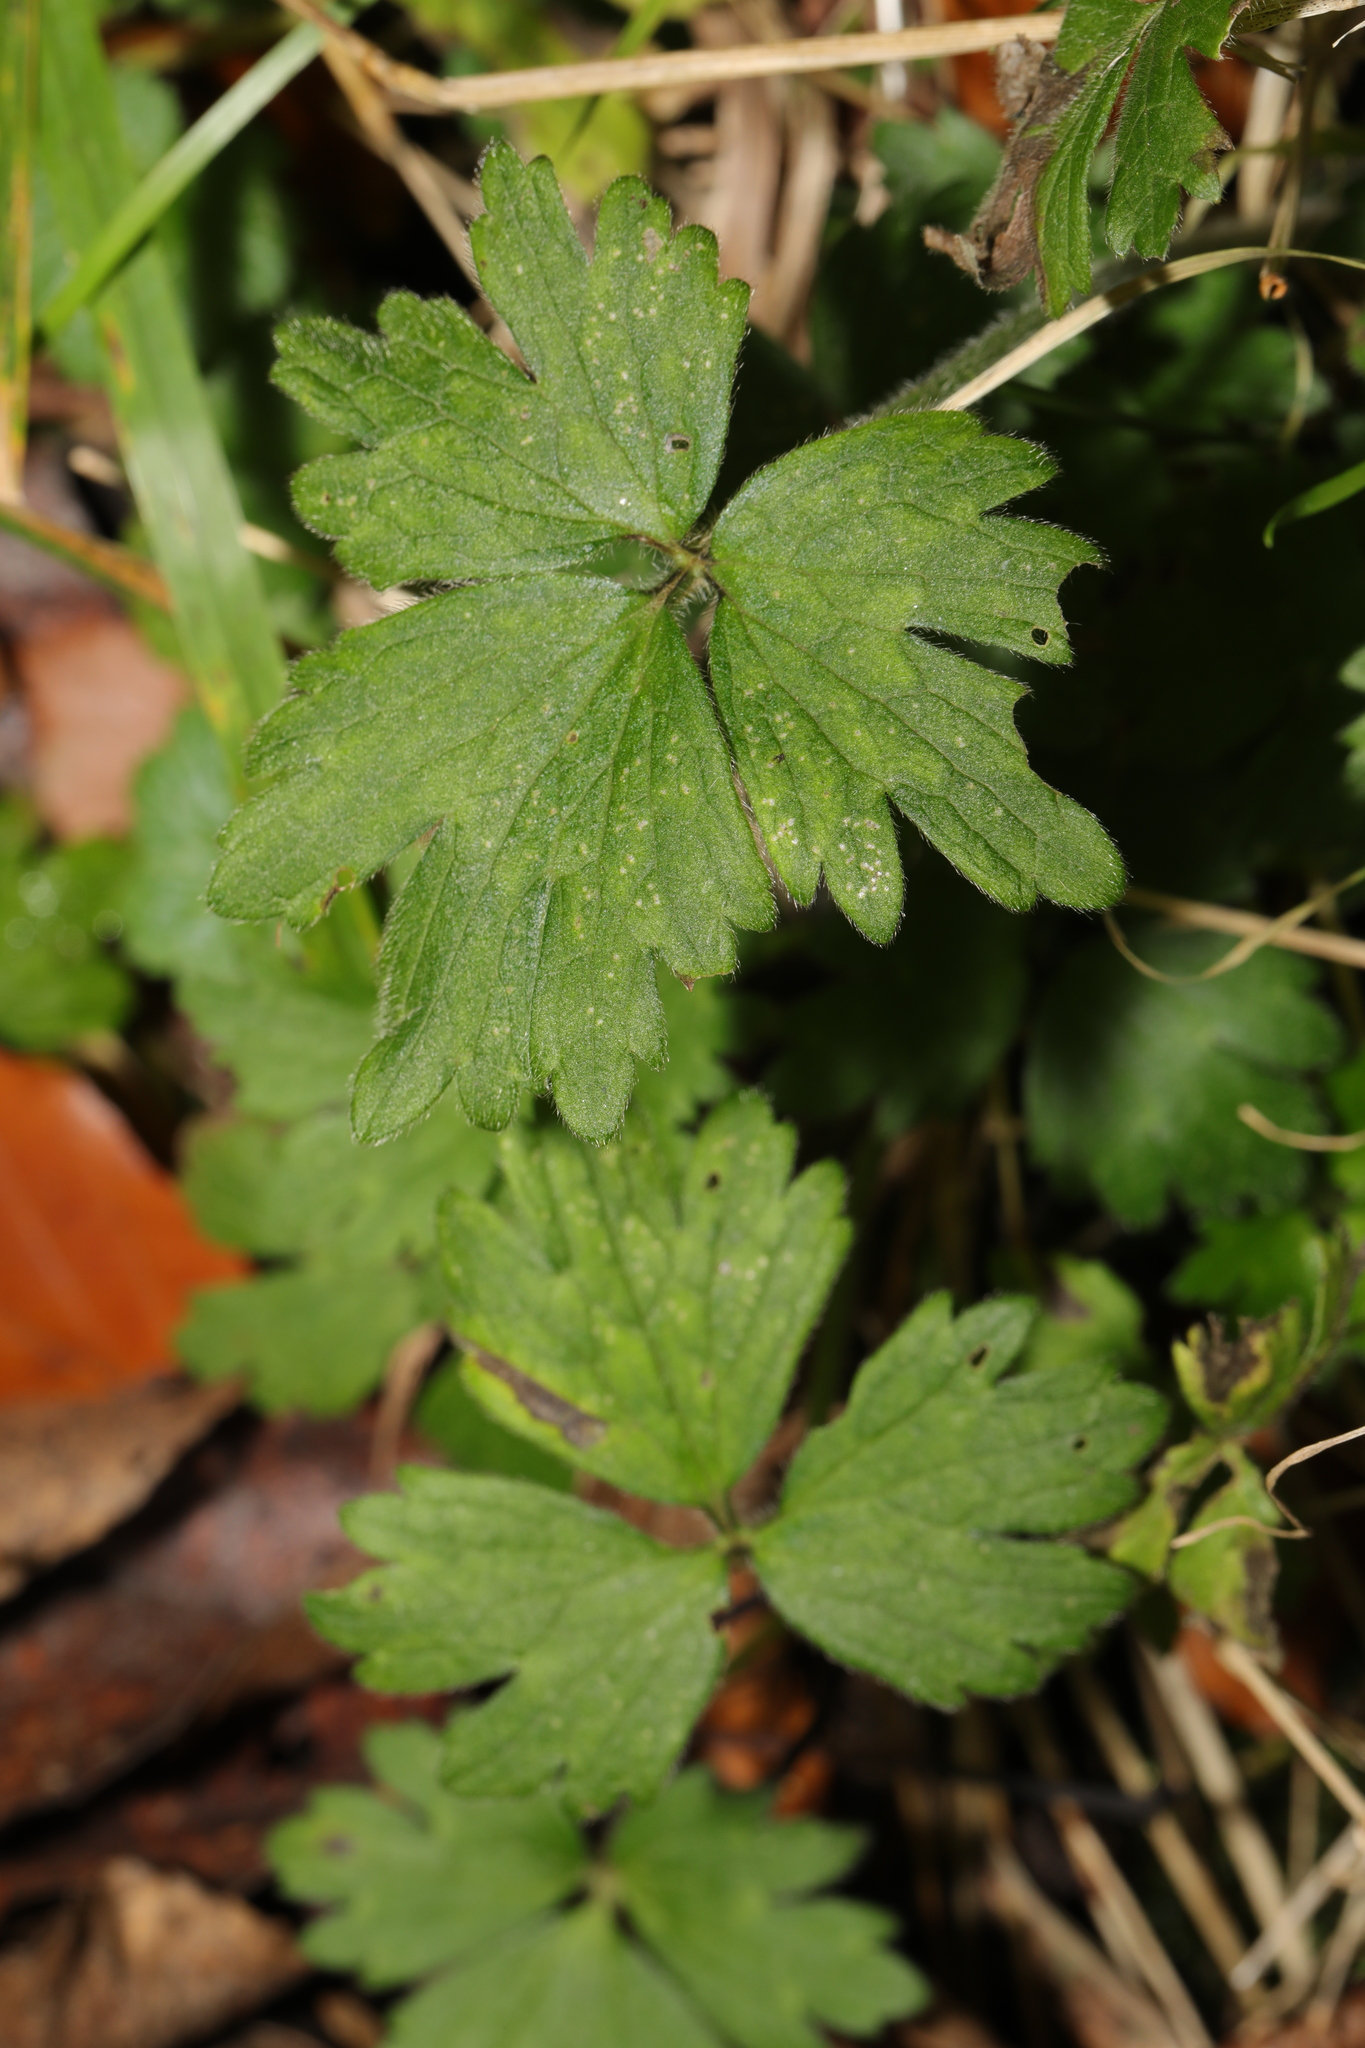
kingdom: Plantae
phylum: Tracheophyta
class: Magnoliopsida
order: Ranunculales
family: Ranunculaceae
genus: Ranunculus
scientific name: Ranunculus repens
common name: Creeping buttercup
